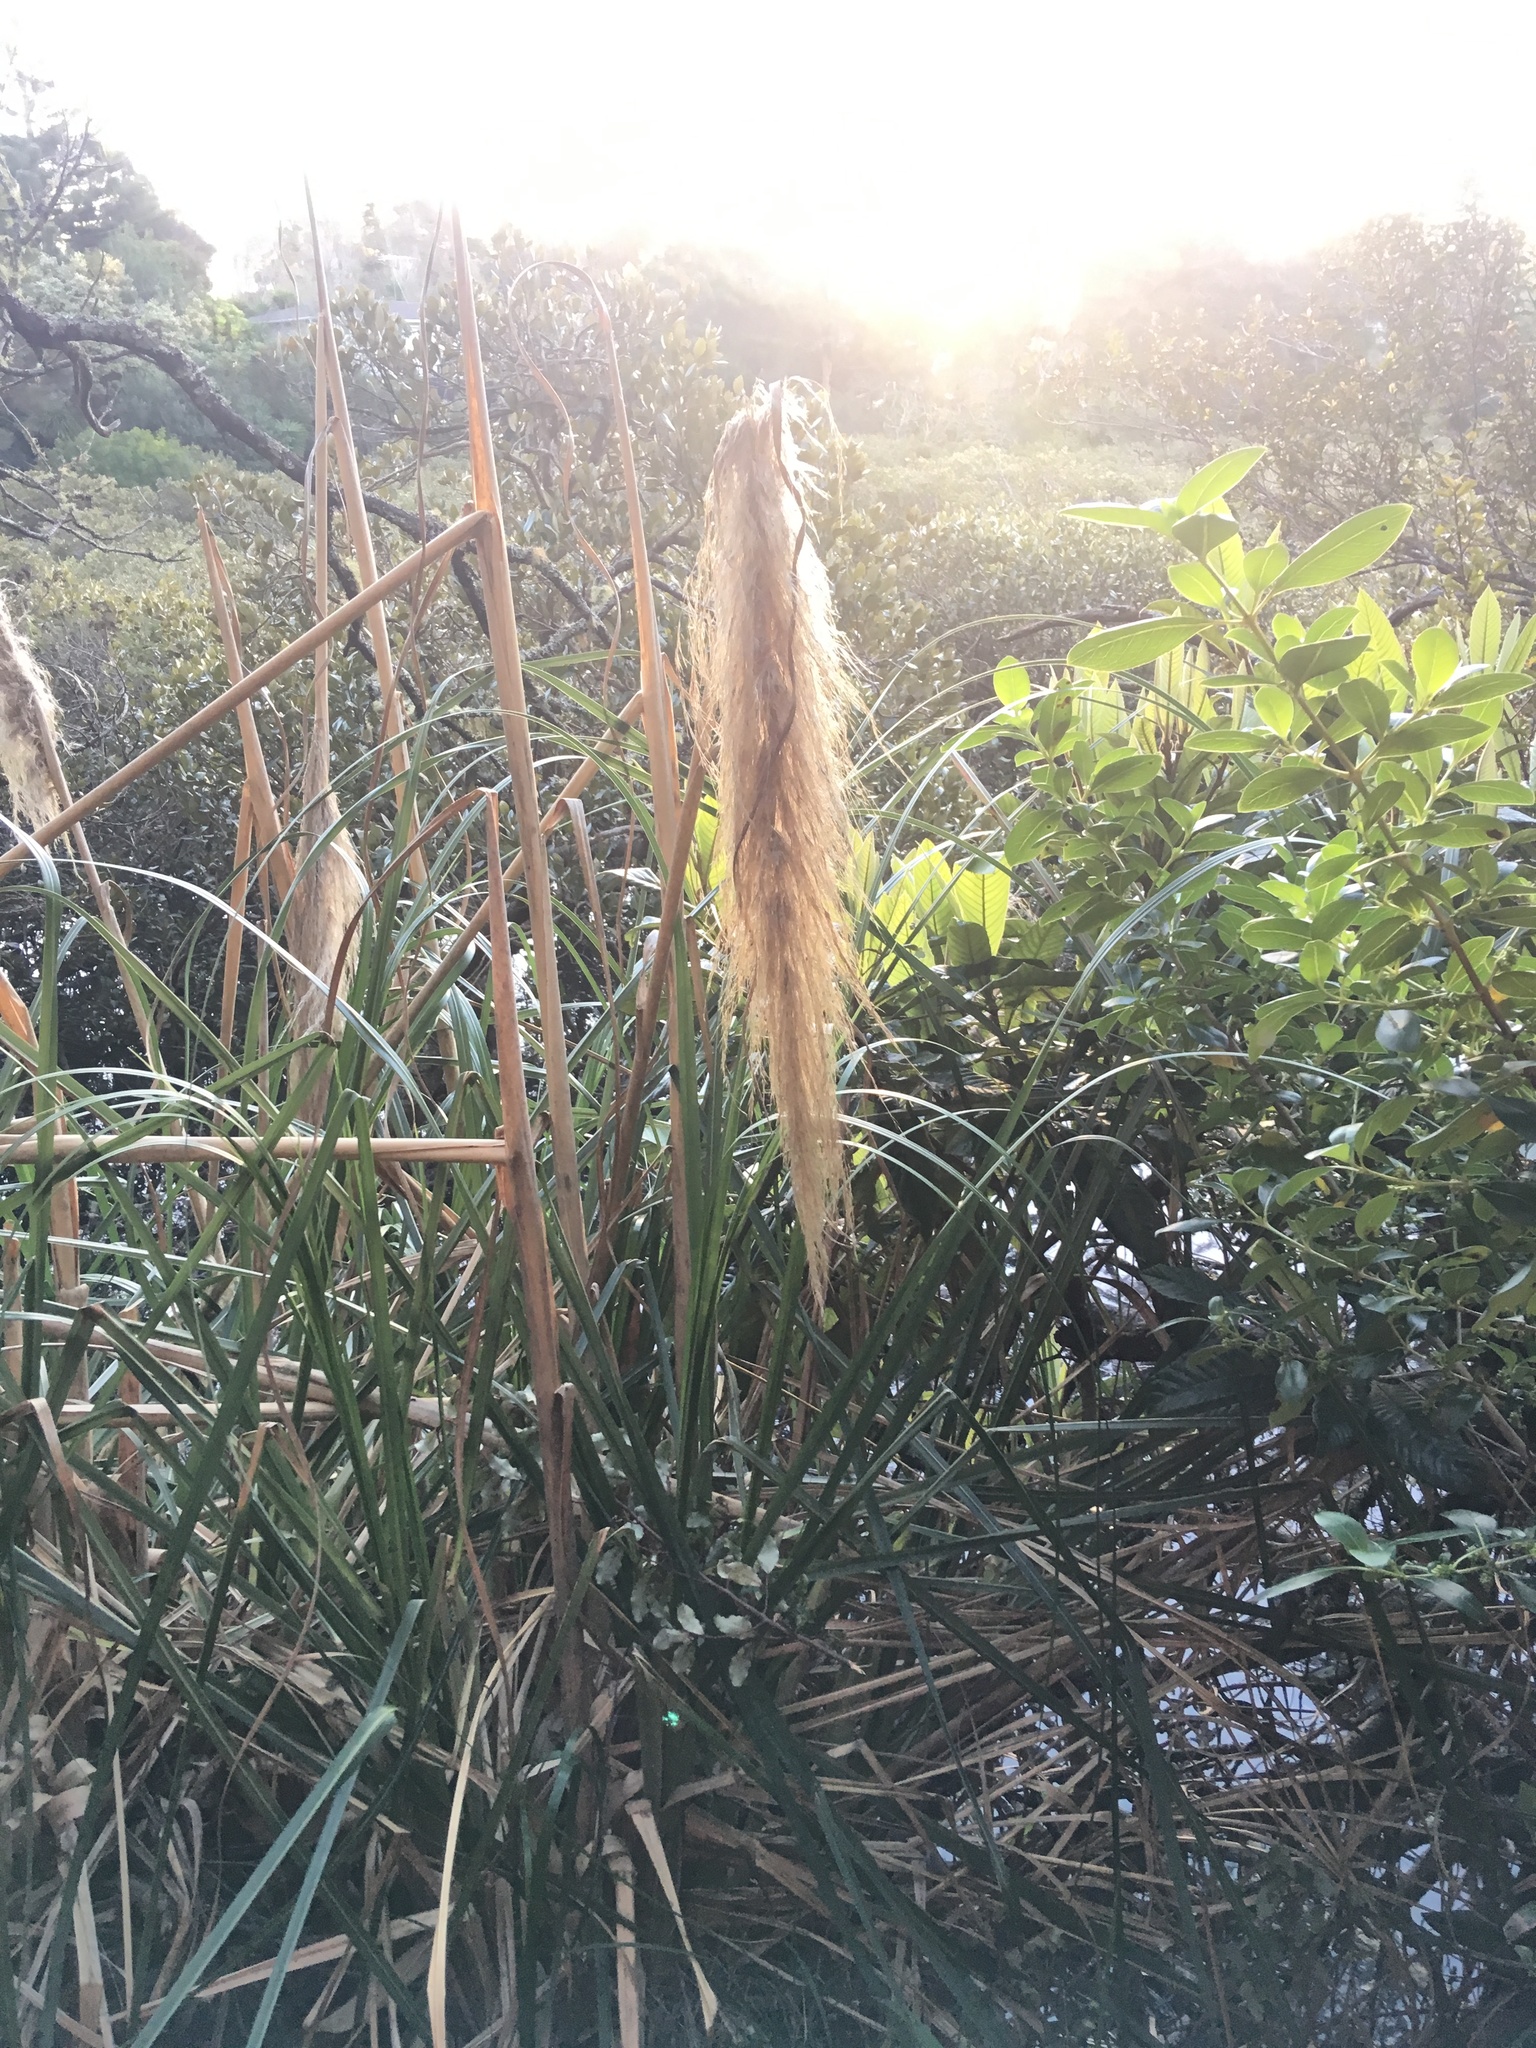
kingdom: Plantae
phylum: Tracheophyta
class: Magnoliopsida
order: Lamiales
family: Acanthaceae
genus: Avicennia
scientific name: Avicennia marina
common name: Gray mangrove
